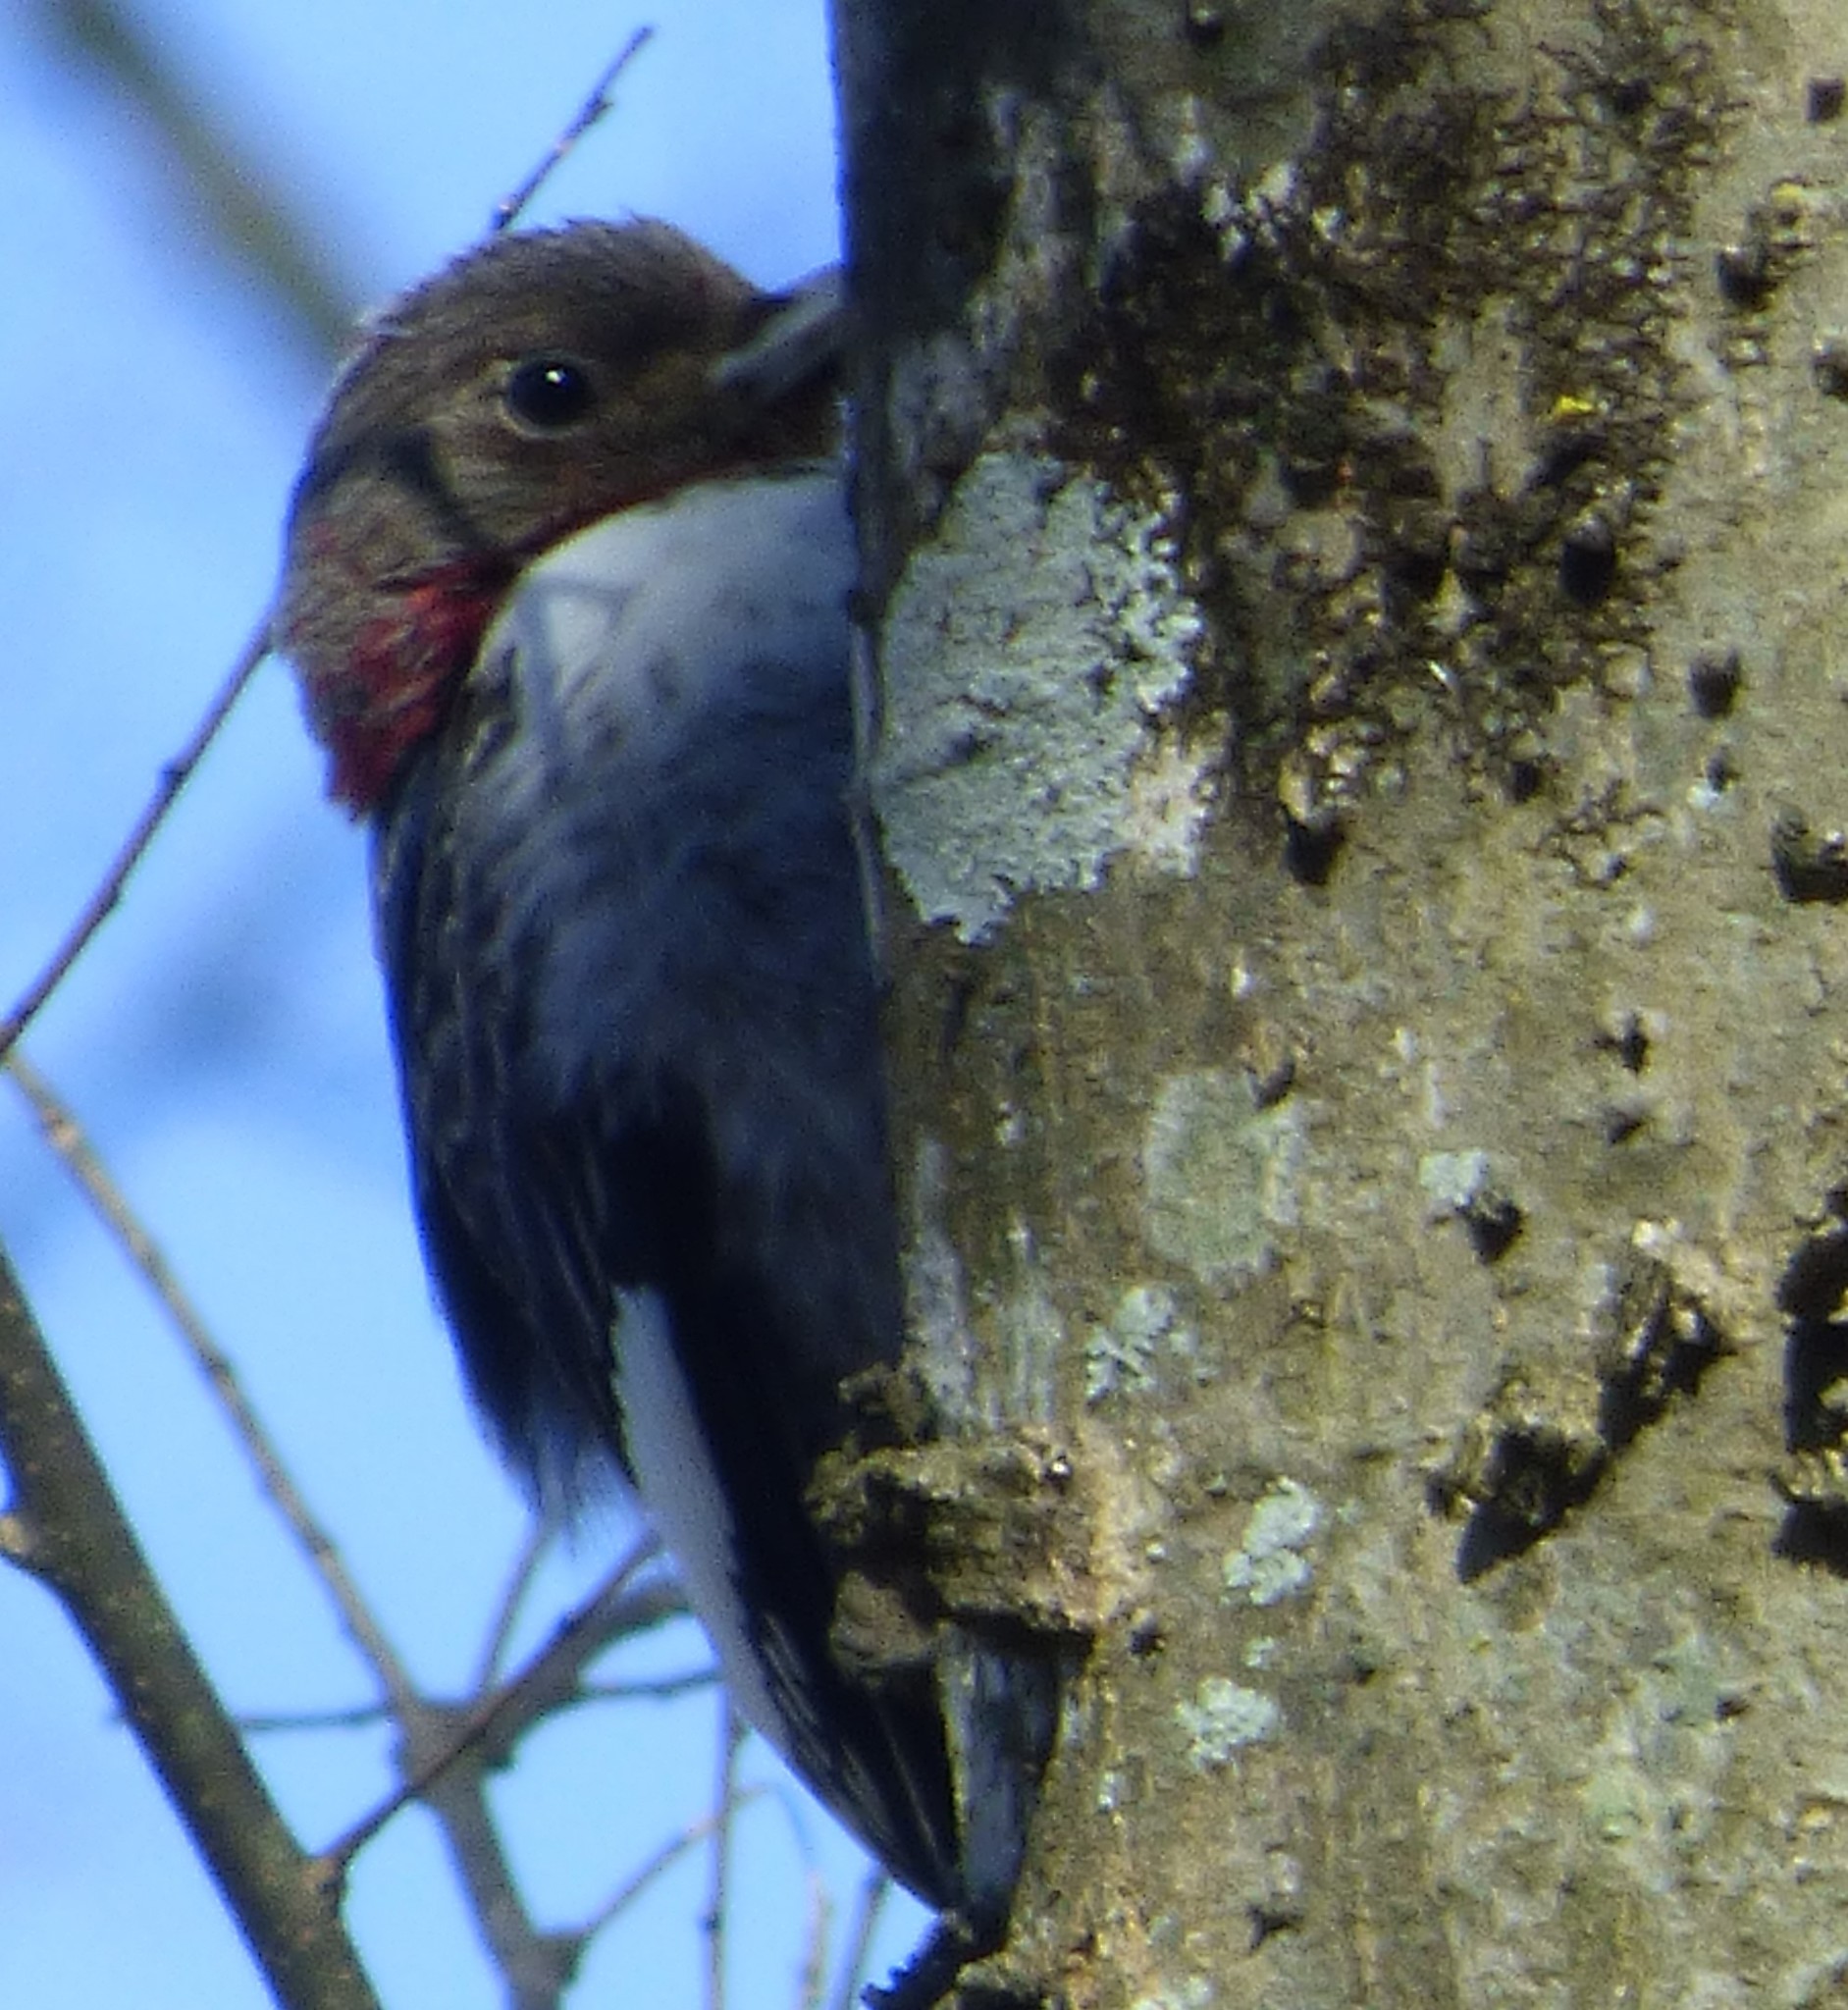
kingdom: Animalia
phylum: Chordata
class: Aves
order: Piciformes
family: Picidae
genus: Melanerpes
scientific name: Melanerpes erythrocephalus
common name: Red-headed woodpecker
